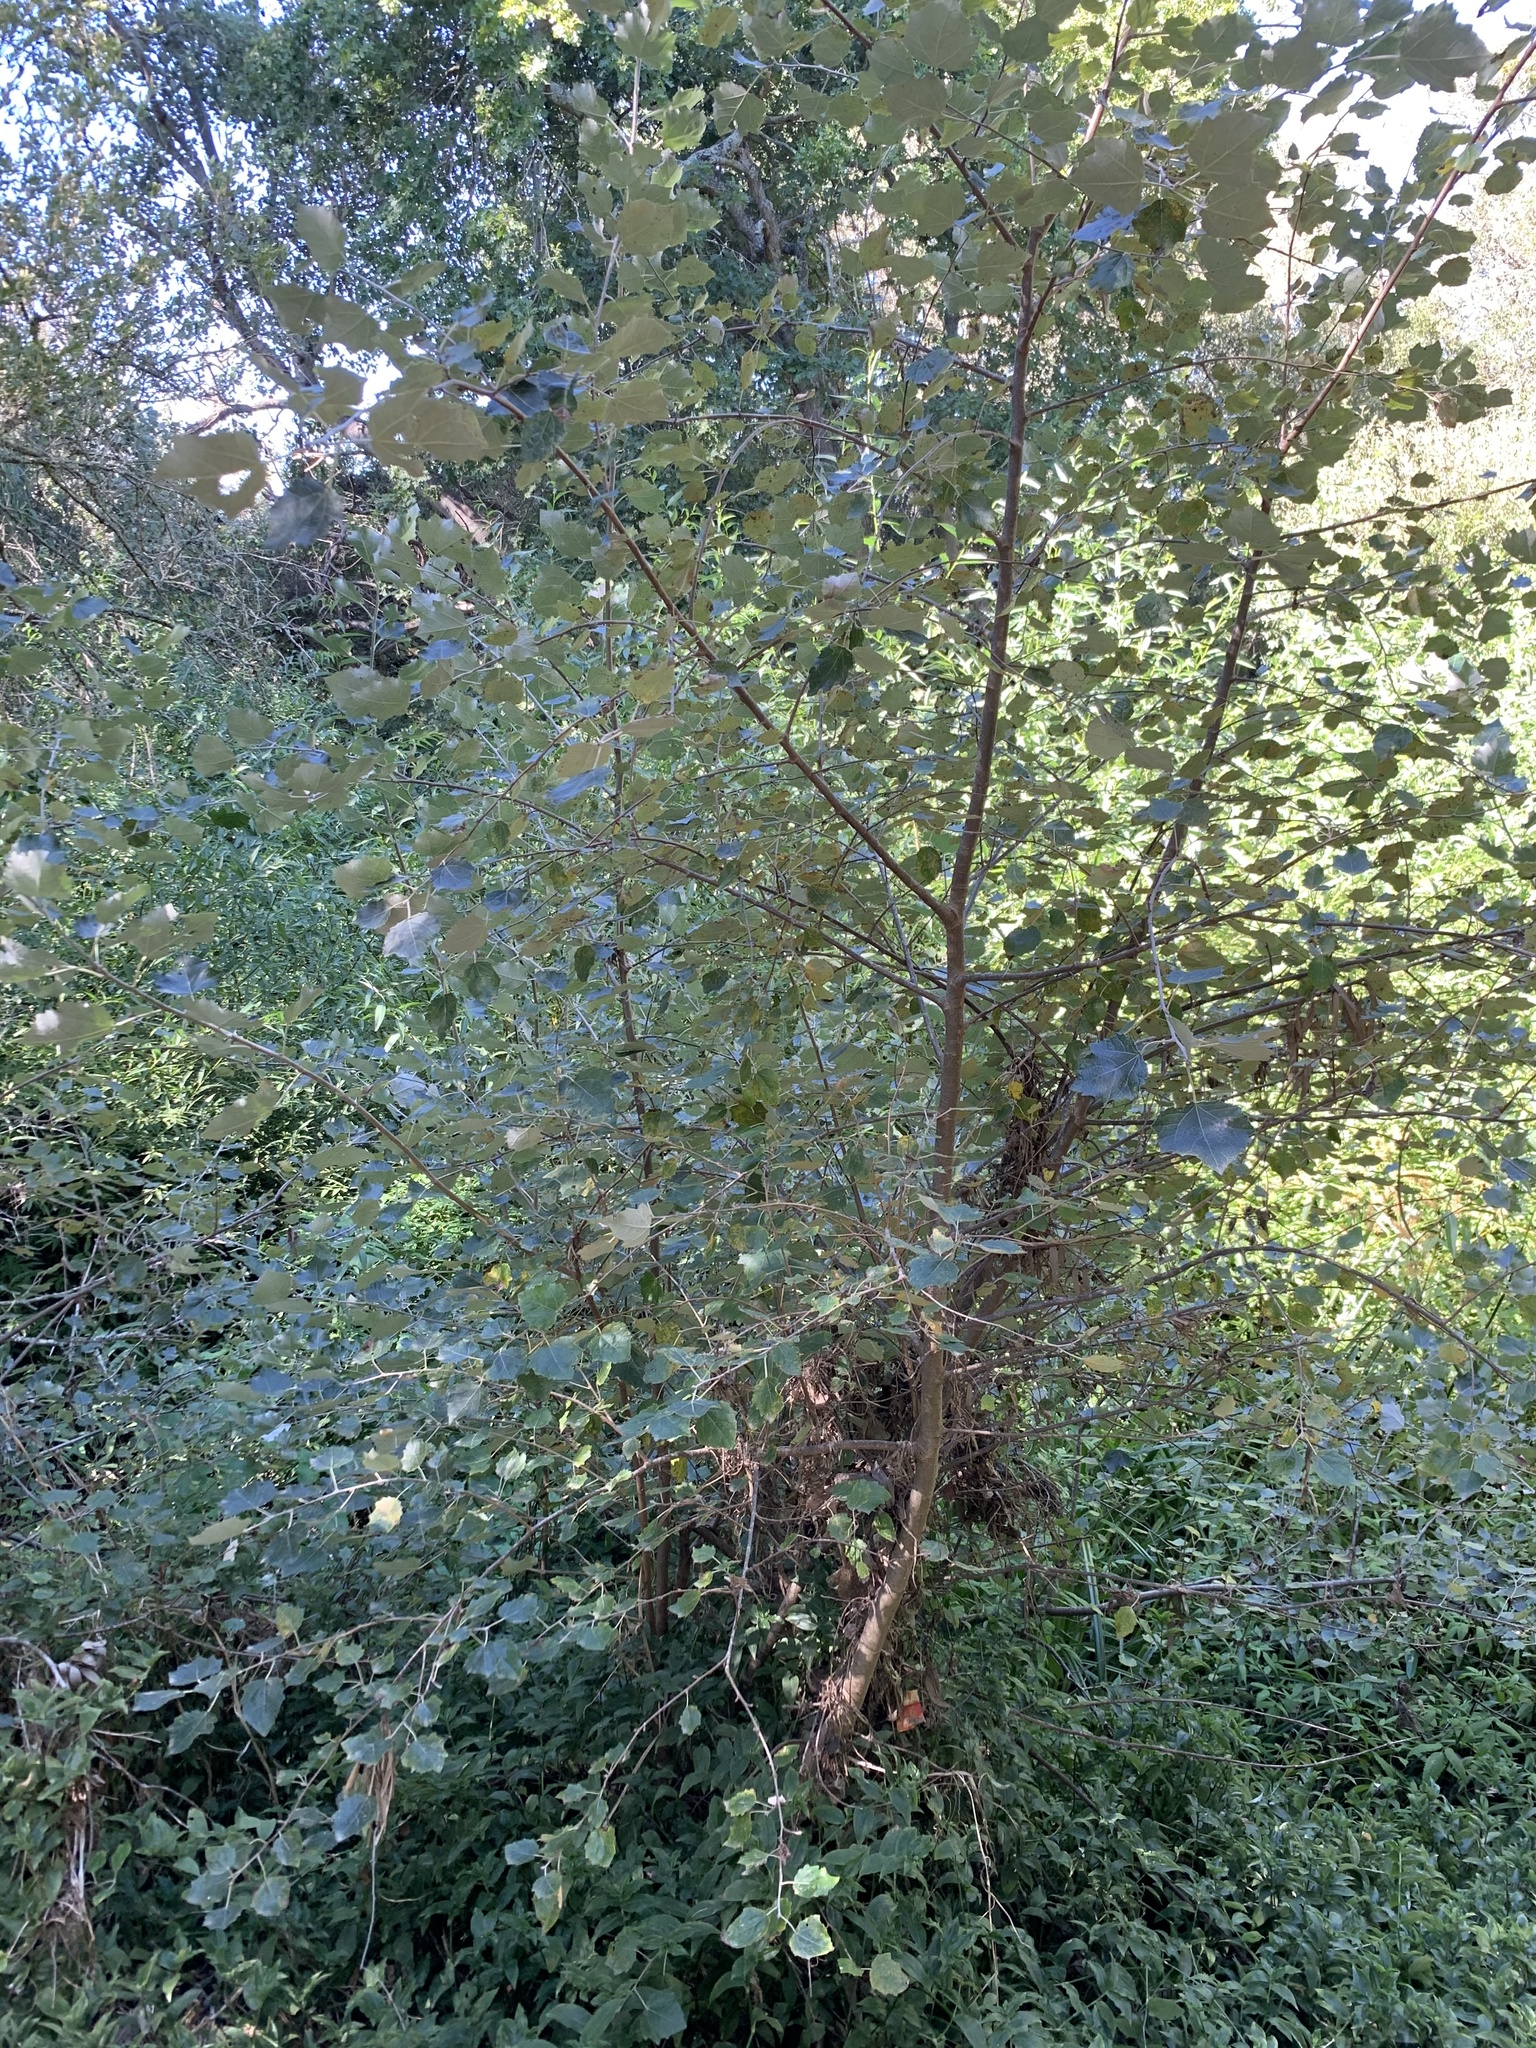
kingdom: Plantae
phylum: Tracheophyta
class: Magnoliopsida
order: Malpighiales
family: Salicaceae
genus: Populus
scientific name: Populus canescens
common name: Gray poplar
